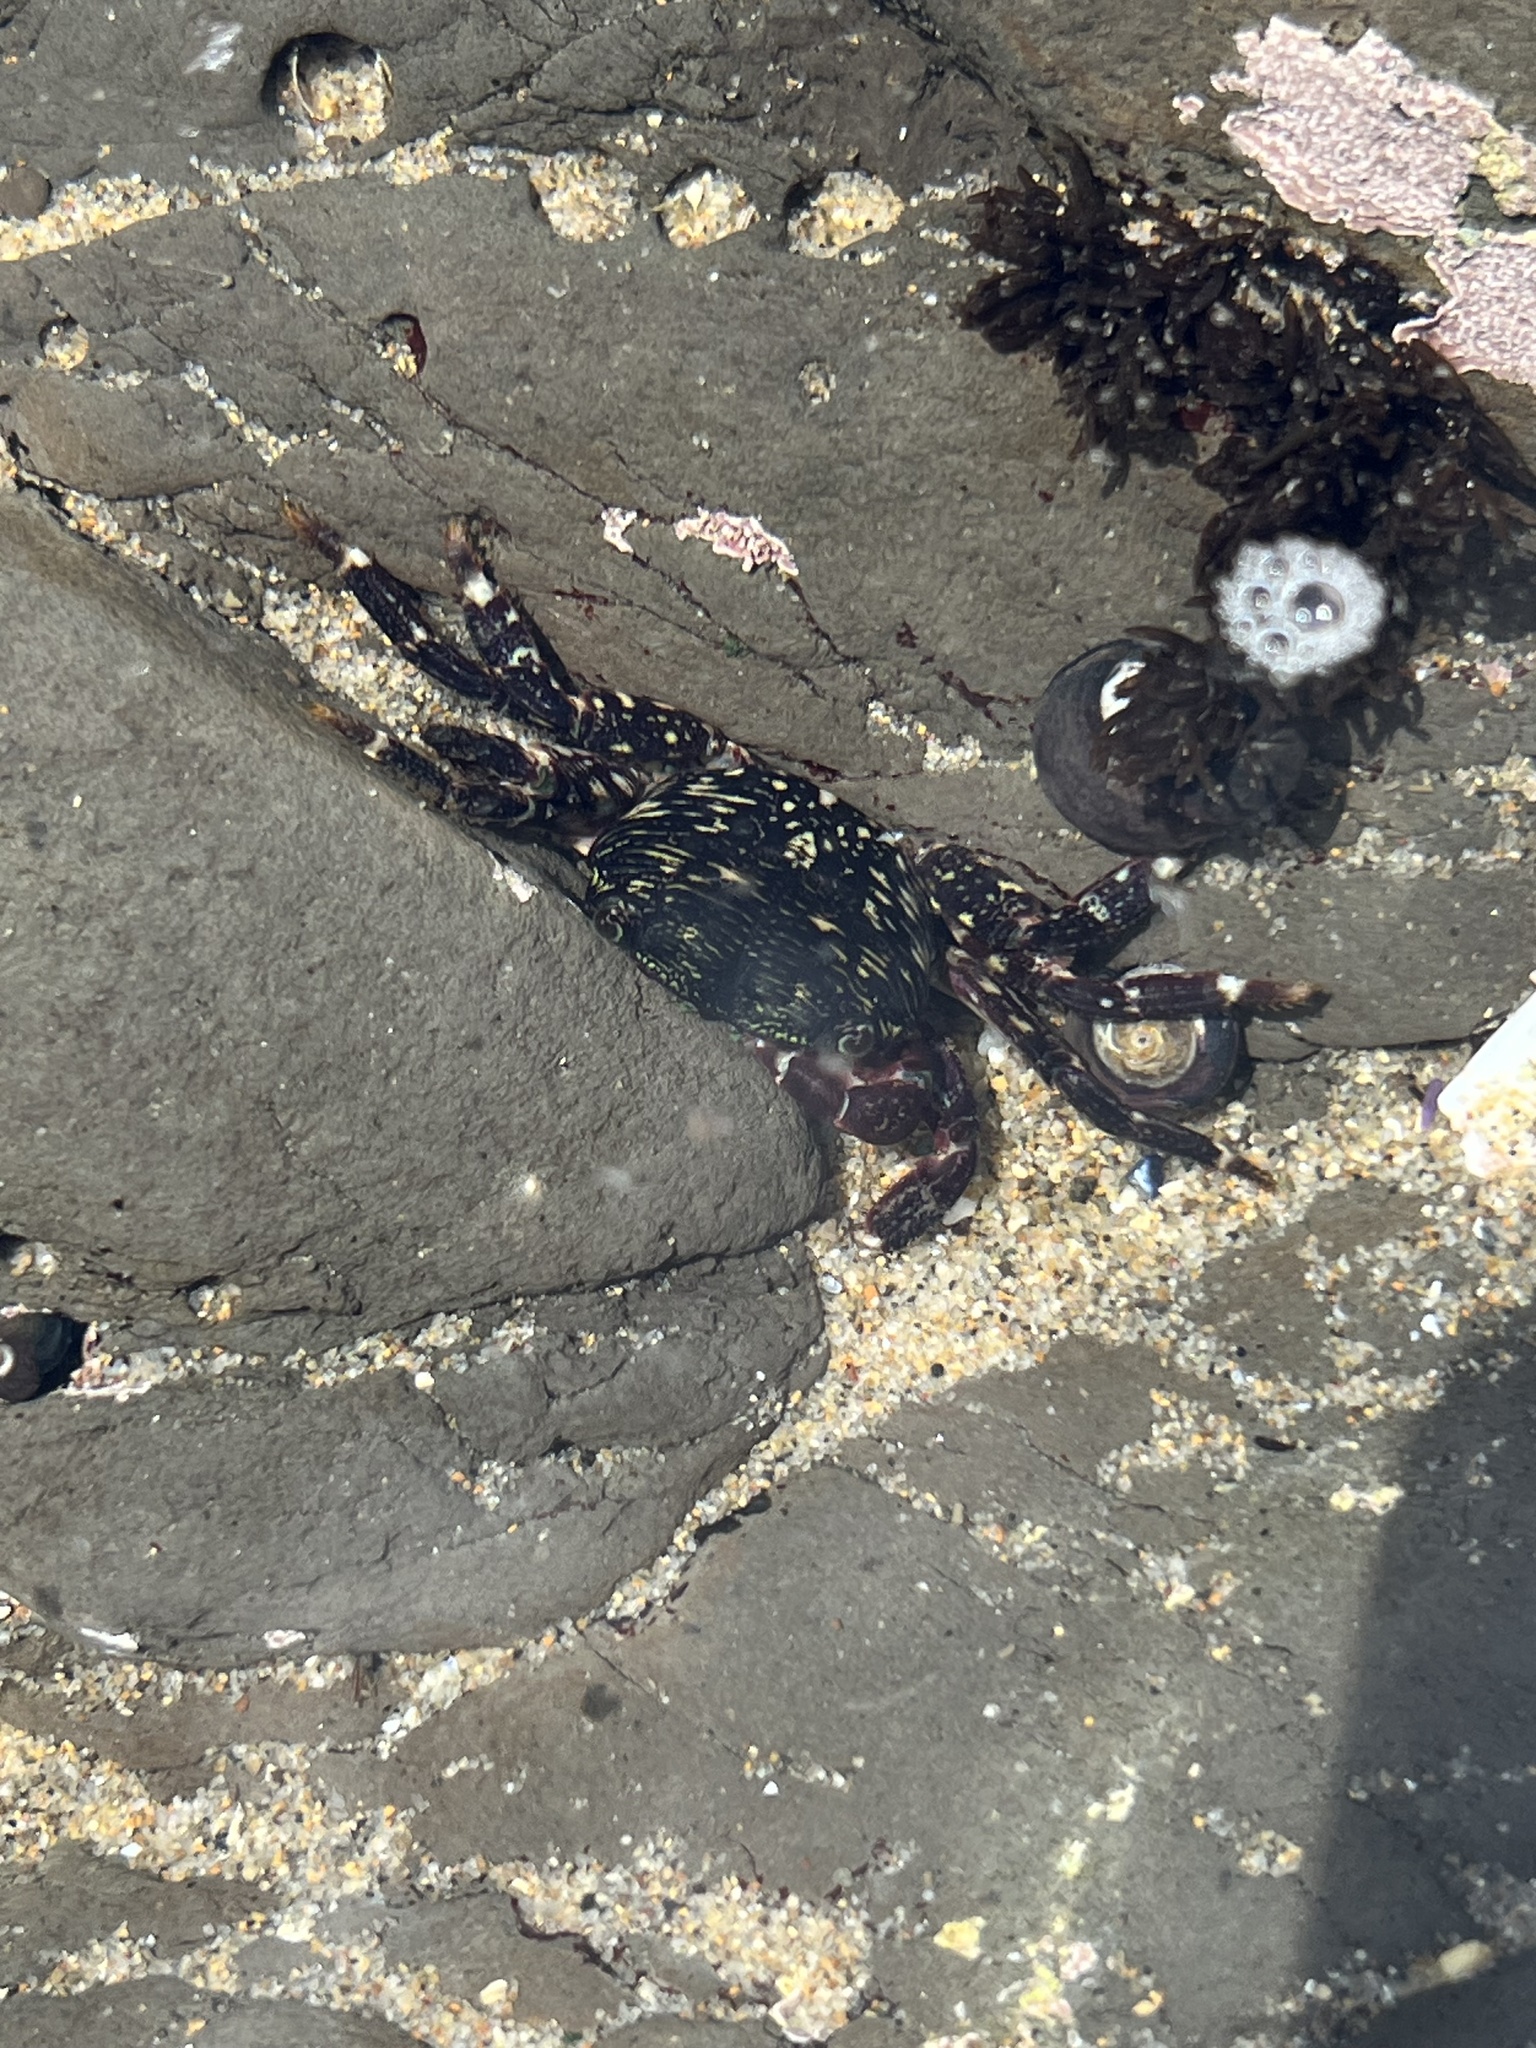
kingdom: Animalia
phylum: Arthropoda
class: Malacostraca
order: Decapoda
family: Grapsidae
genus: Pachygrapsus
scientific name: Pachygrapsus crassipes
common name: Striped shore crab
